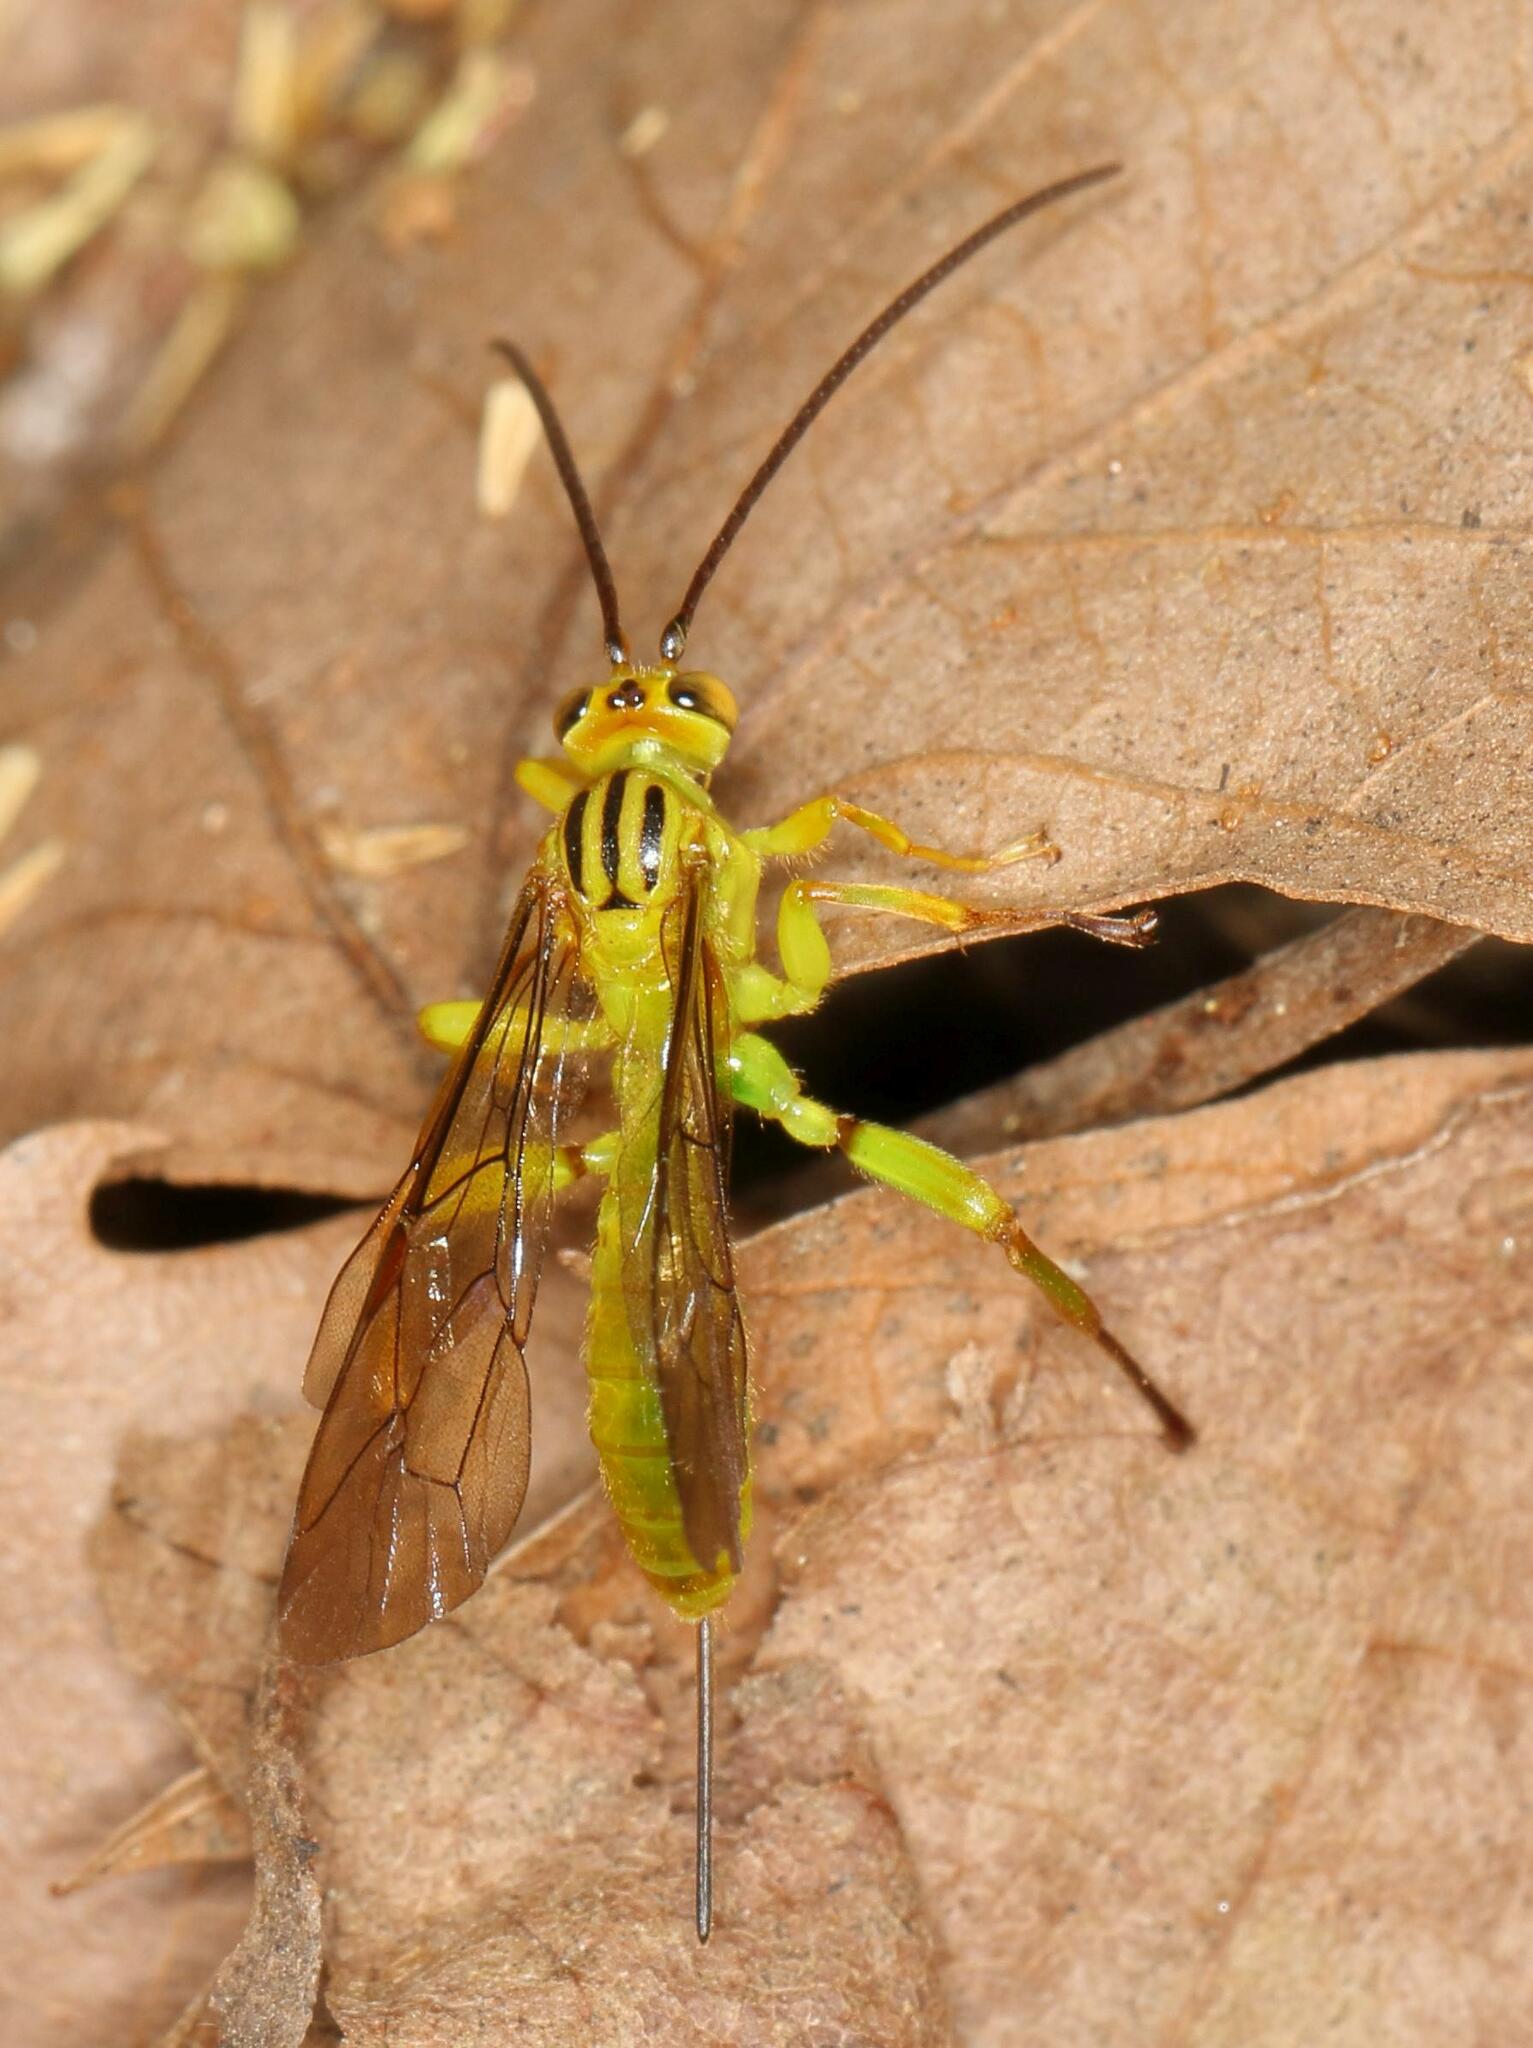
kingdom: Animalia
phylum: Arthropoda
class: Insecta
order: Hymenoptera
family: Ichneumonidae
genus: Theronia
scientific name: Theronia lurida
